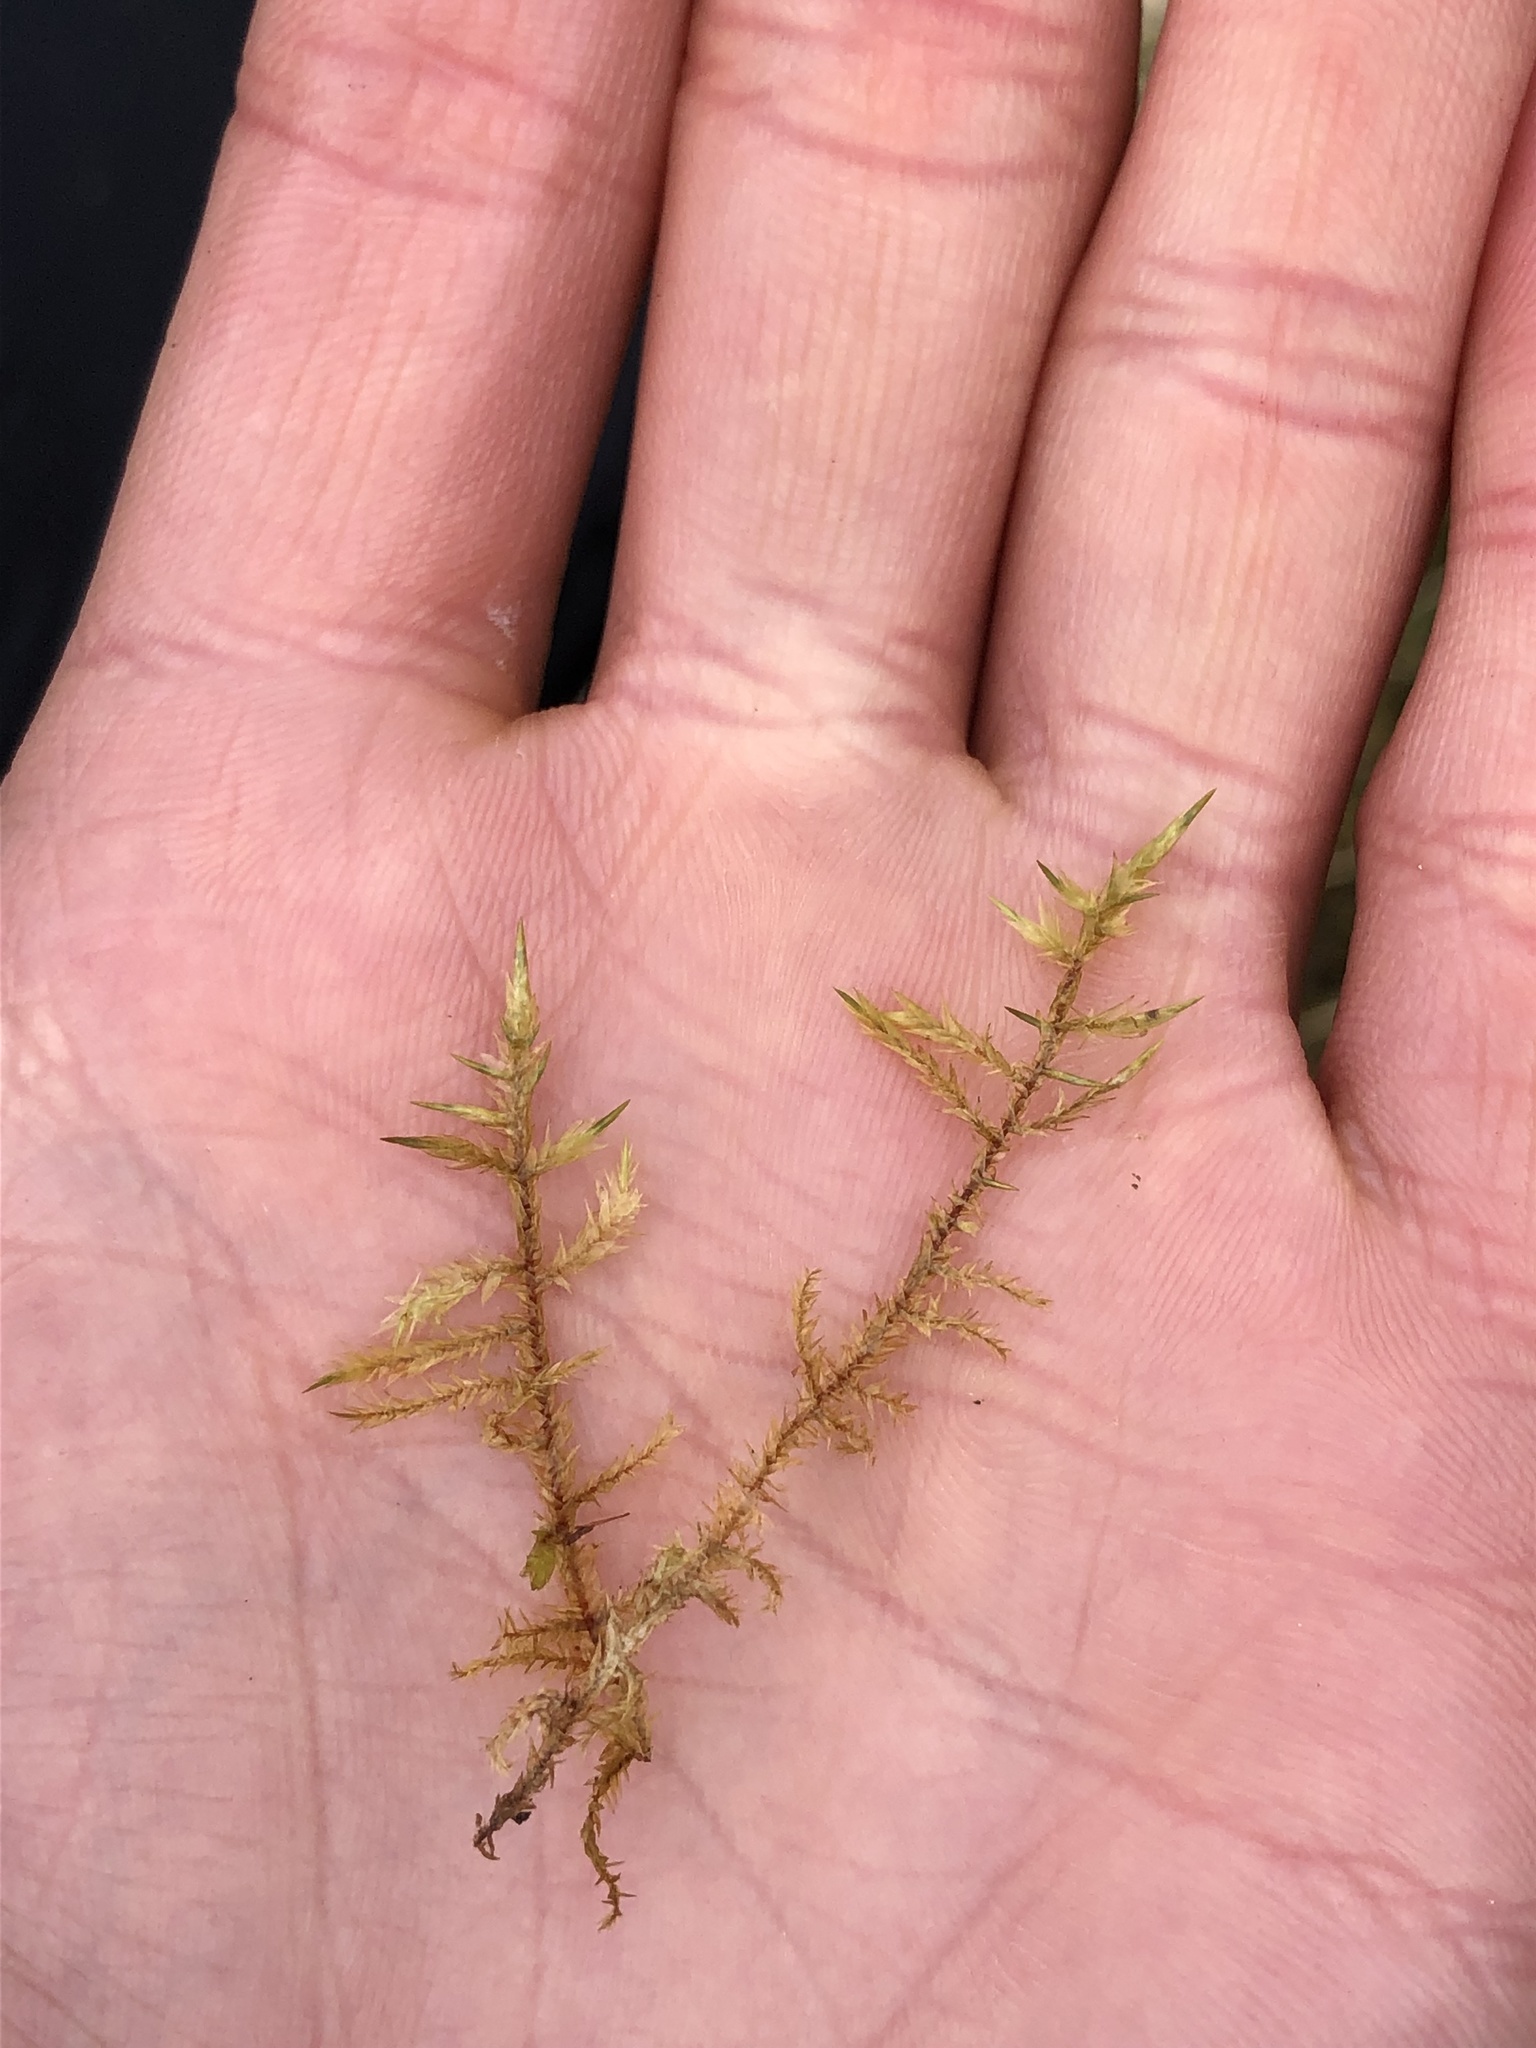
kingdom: Plantae
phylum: Bryophyta
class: Bryopsida
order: Hypnales
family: Pylaisiaceae
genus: Calliergonella
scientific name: Calliergonella cuspidata
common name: Common large wetland moss
